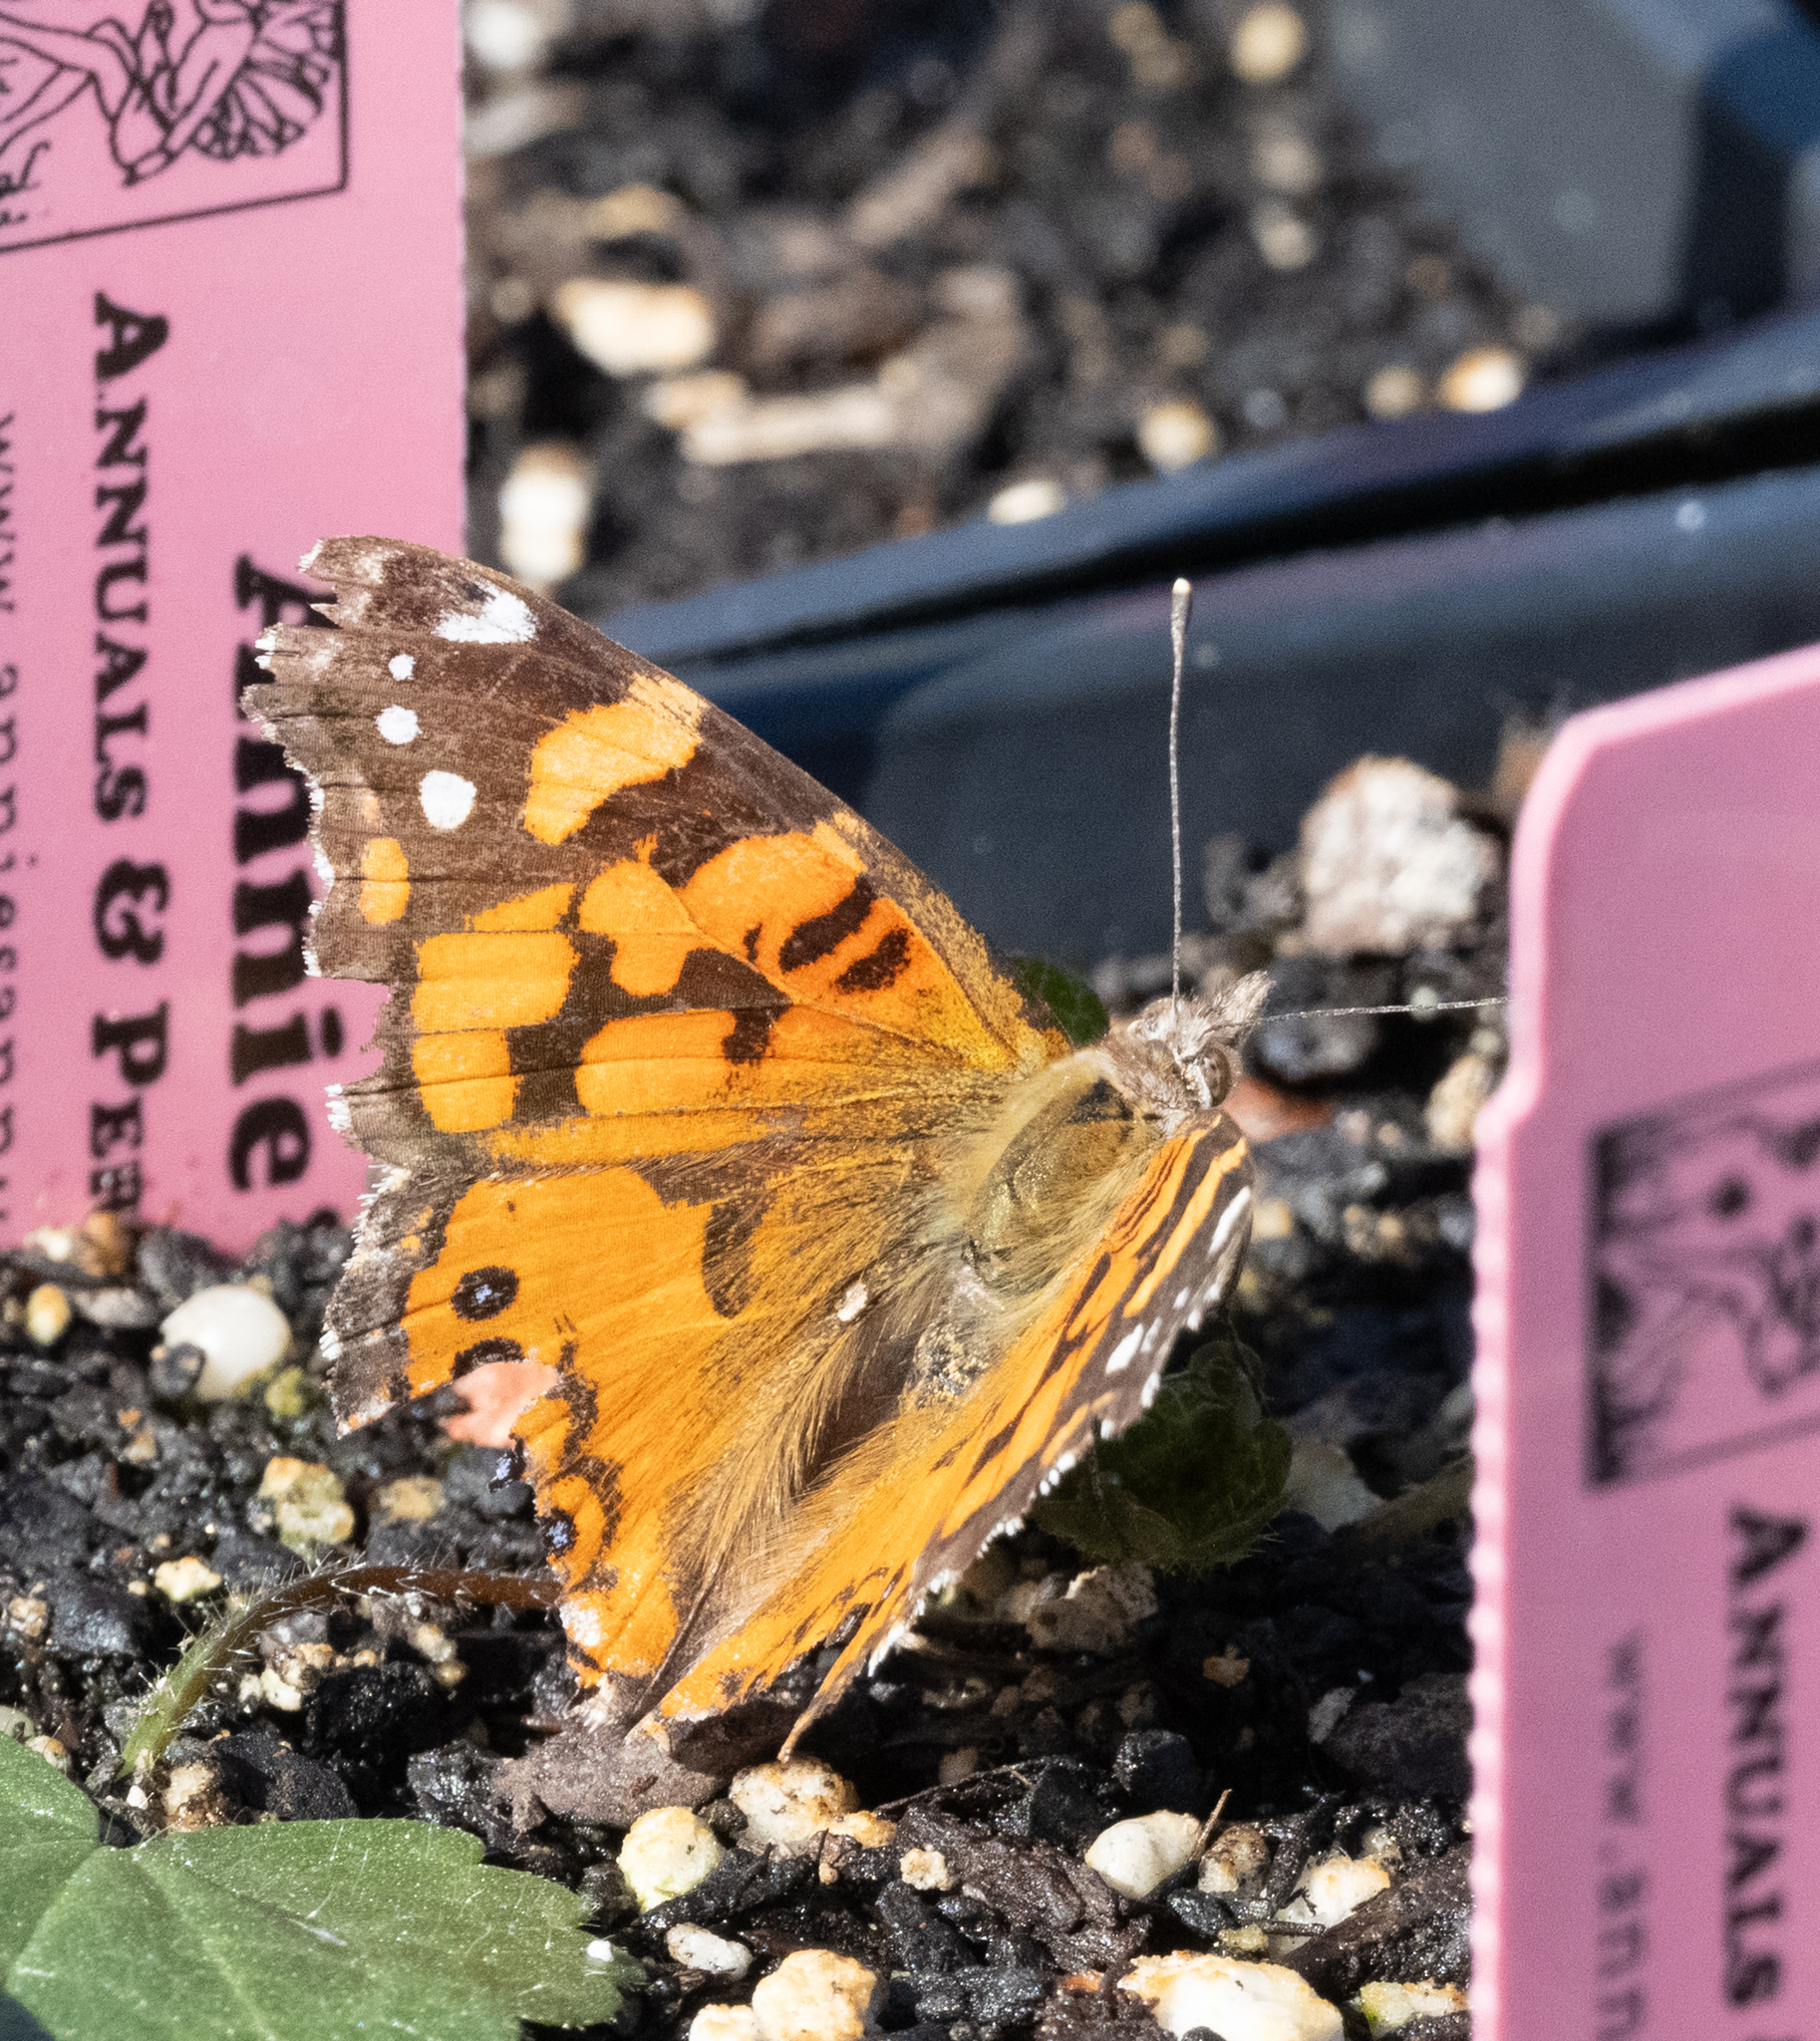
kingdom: Animalia
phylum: Arthropoda
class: Insecta
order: Lepidoptera
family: Nymphalidae
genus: Vanessa
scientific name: Vanessa annabella
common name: West coast lady
